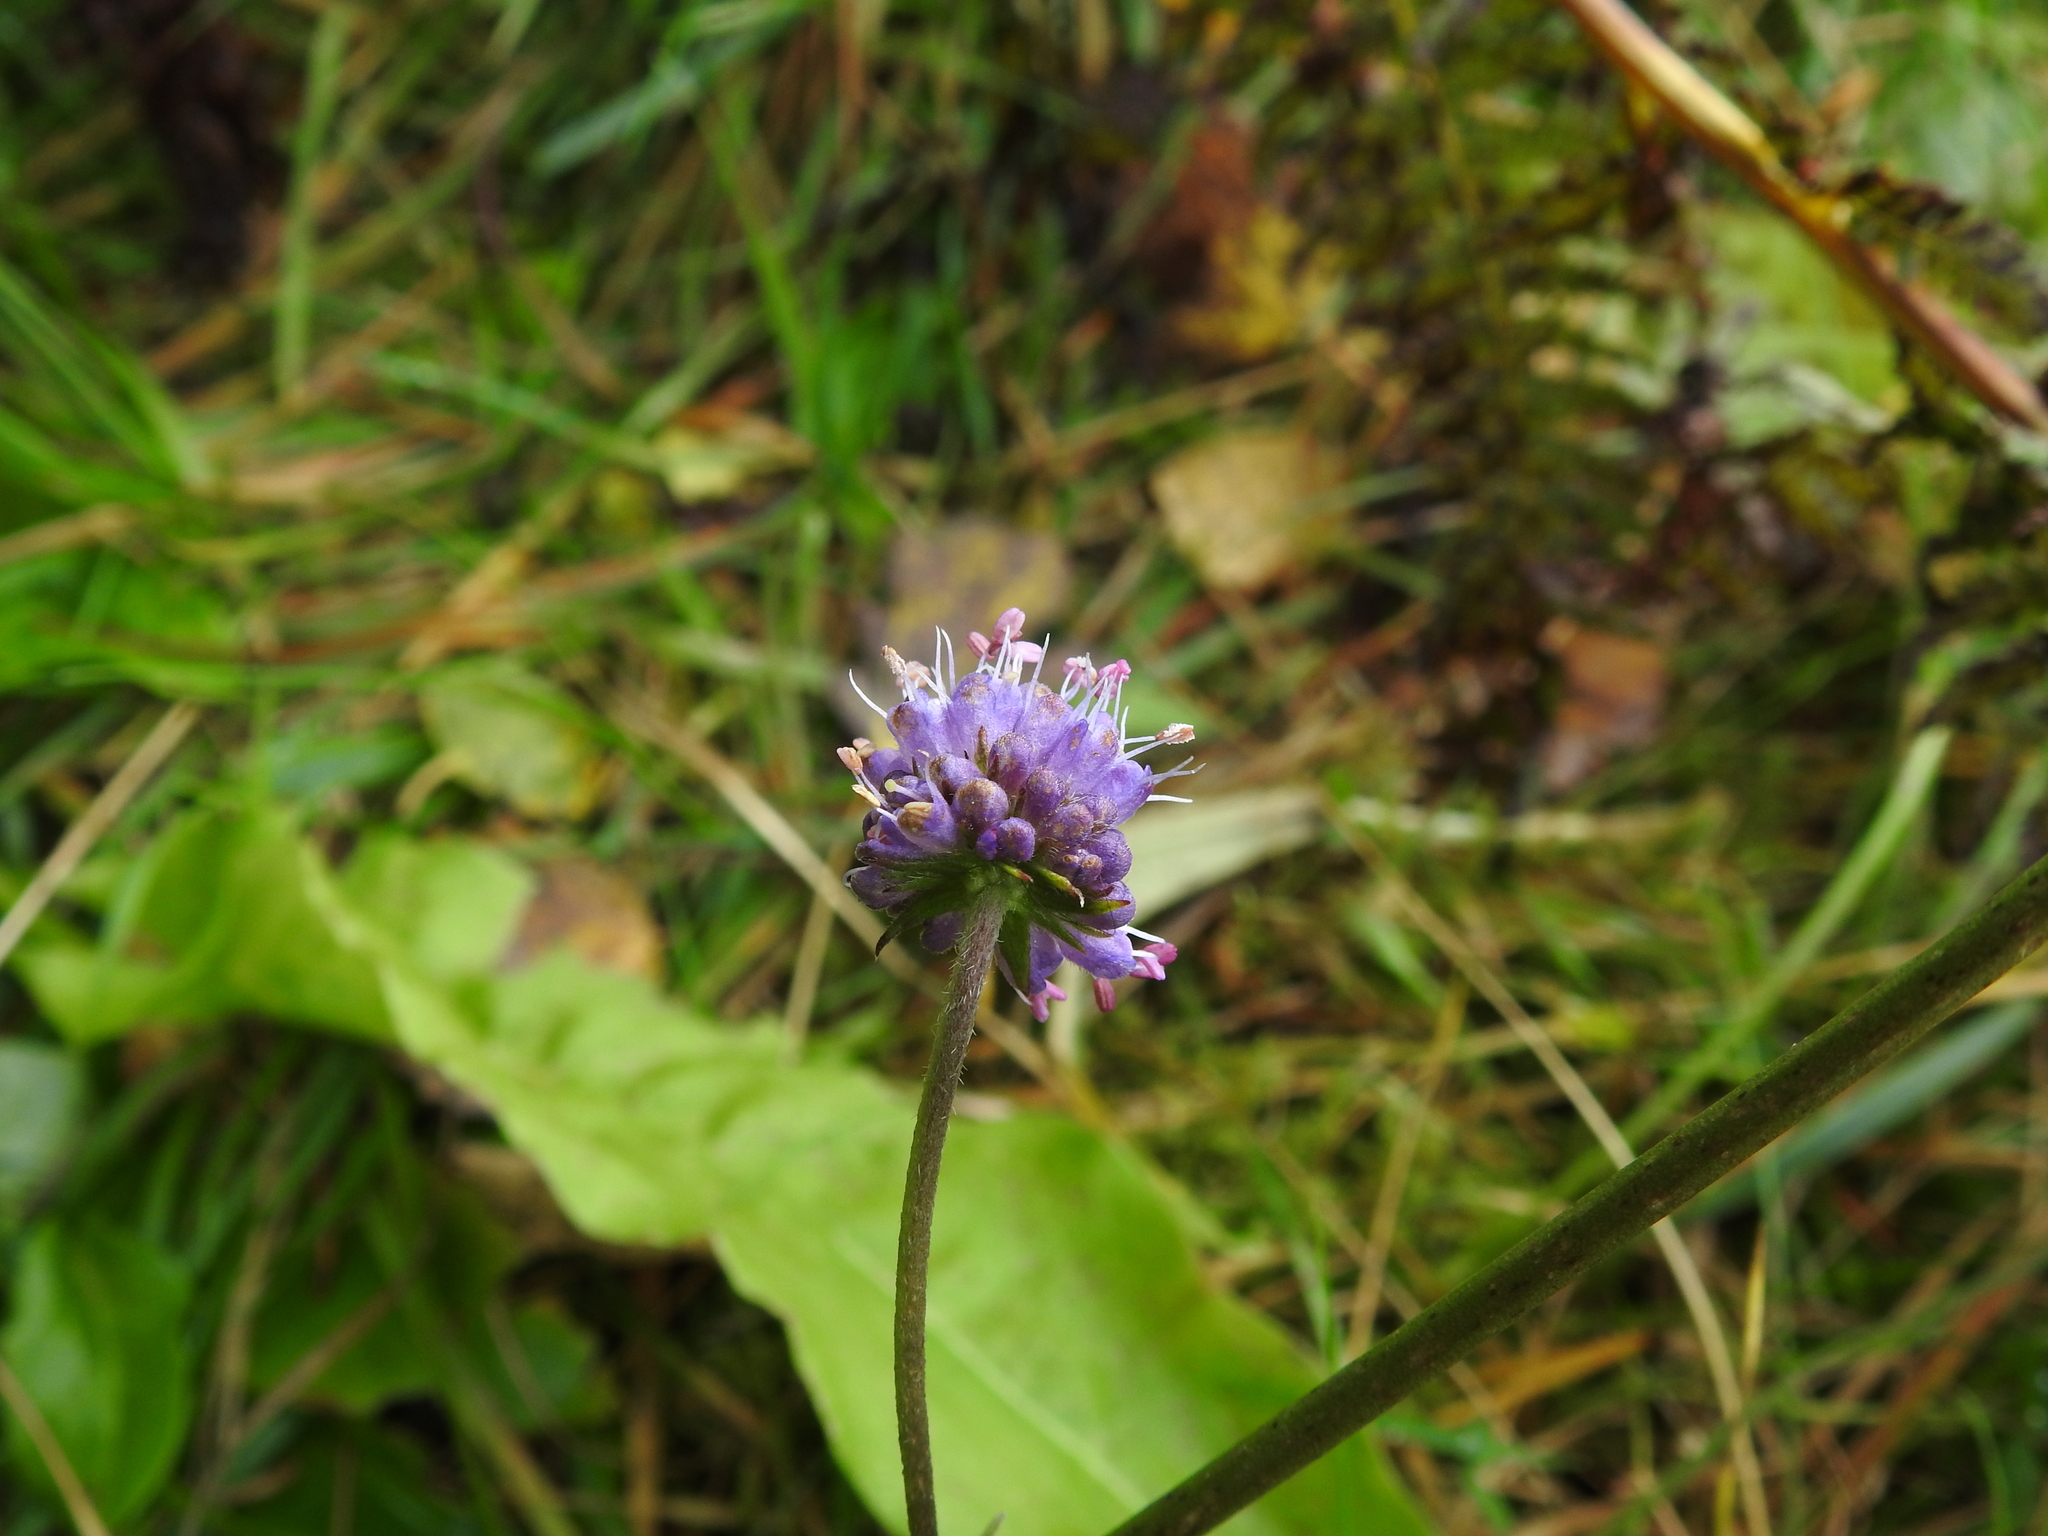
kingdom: Plantae
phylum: Tracheophyta
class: Magnoliopsida
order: Dipsacales
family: Caprifoliaceae
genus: Succisa
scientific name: Succisa pratensis
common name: Devil's-bit
